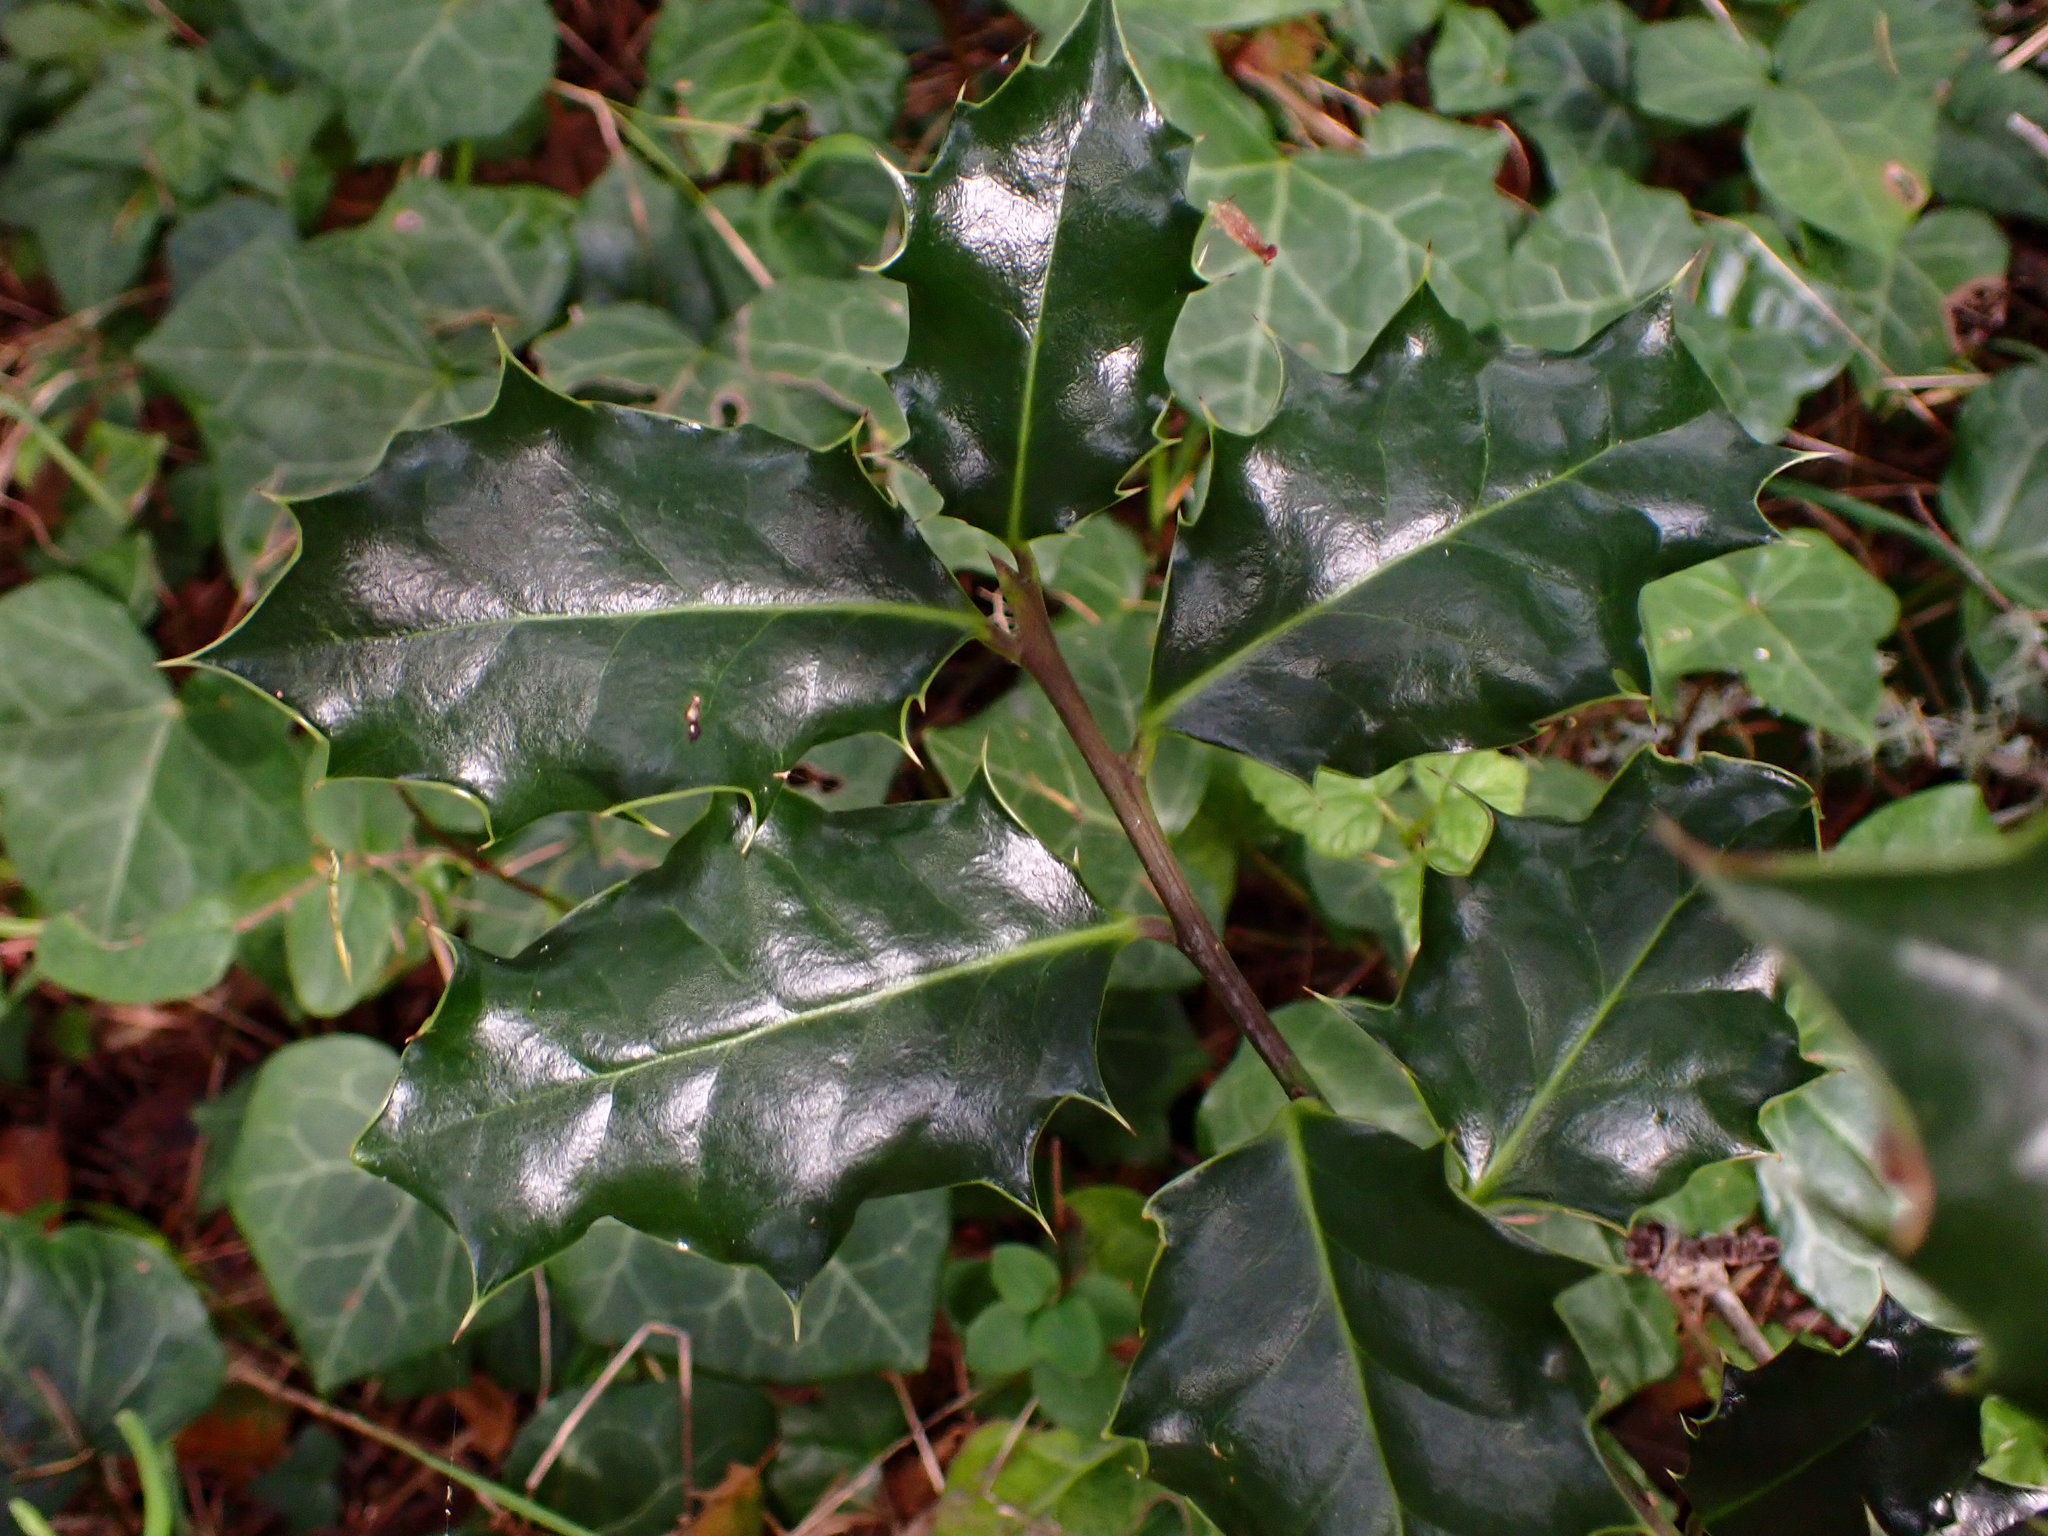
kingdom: Plantae
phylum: Tracheophyta
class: Magnoliopsida
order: Aquifoliales
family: Aquifoliaceae
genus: Ilex
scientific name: Ilex aquifolium
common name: English holly
